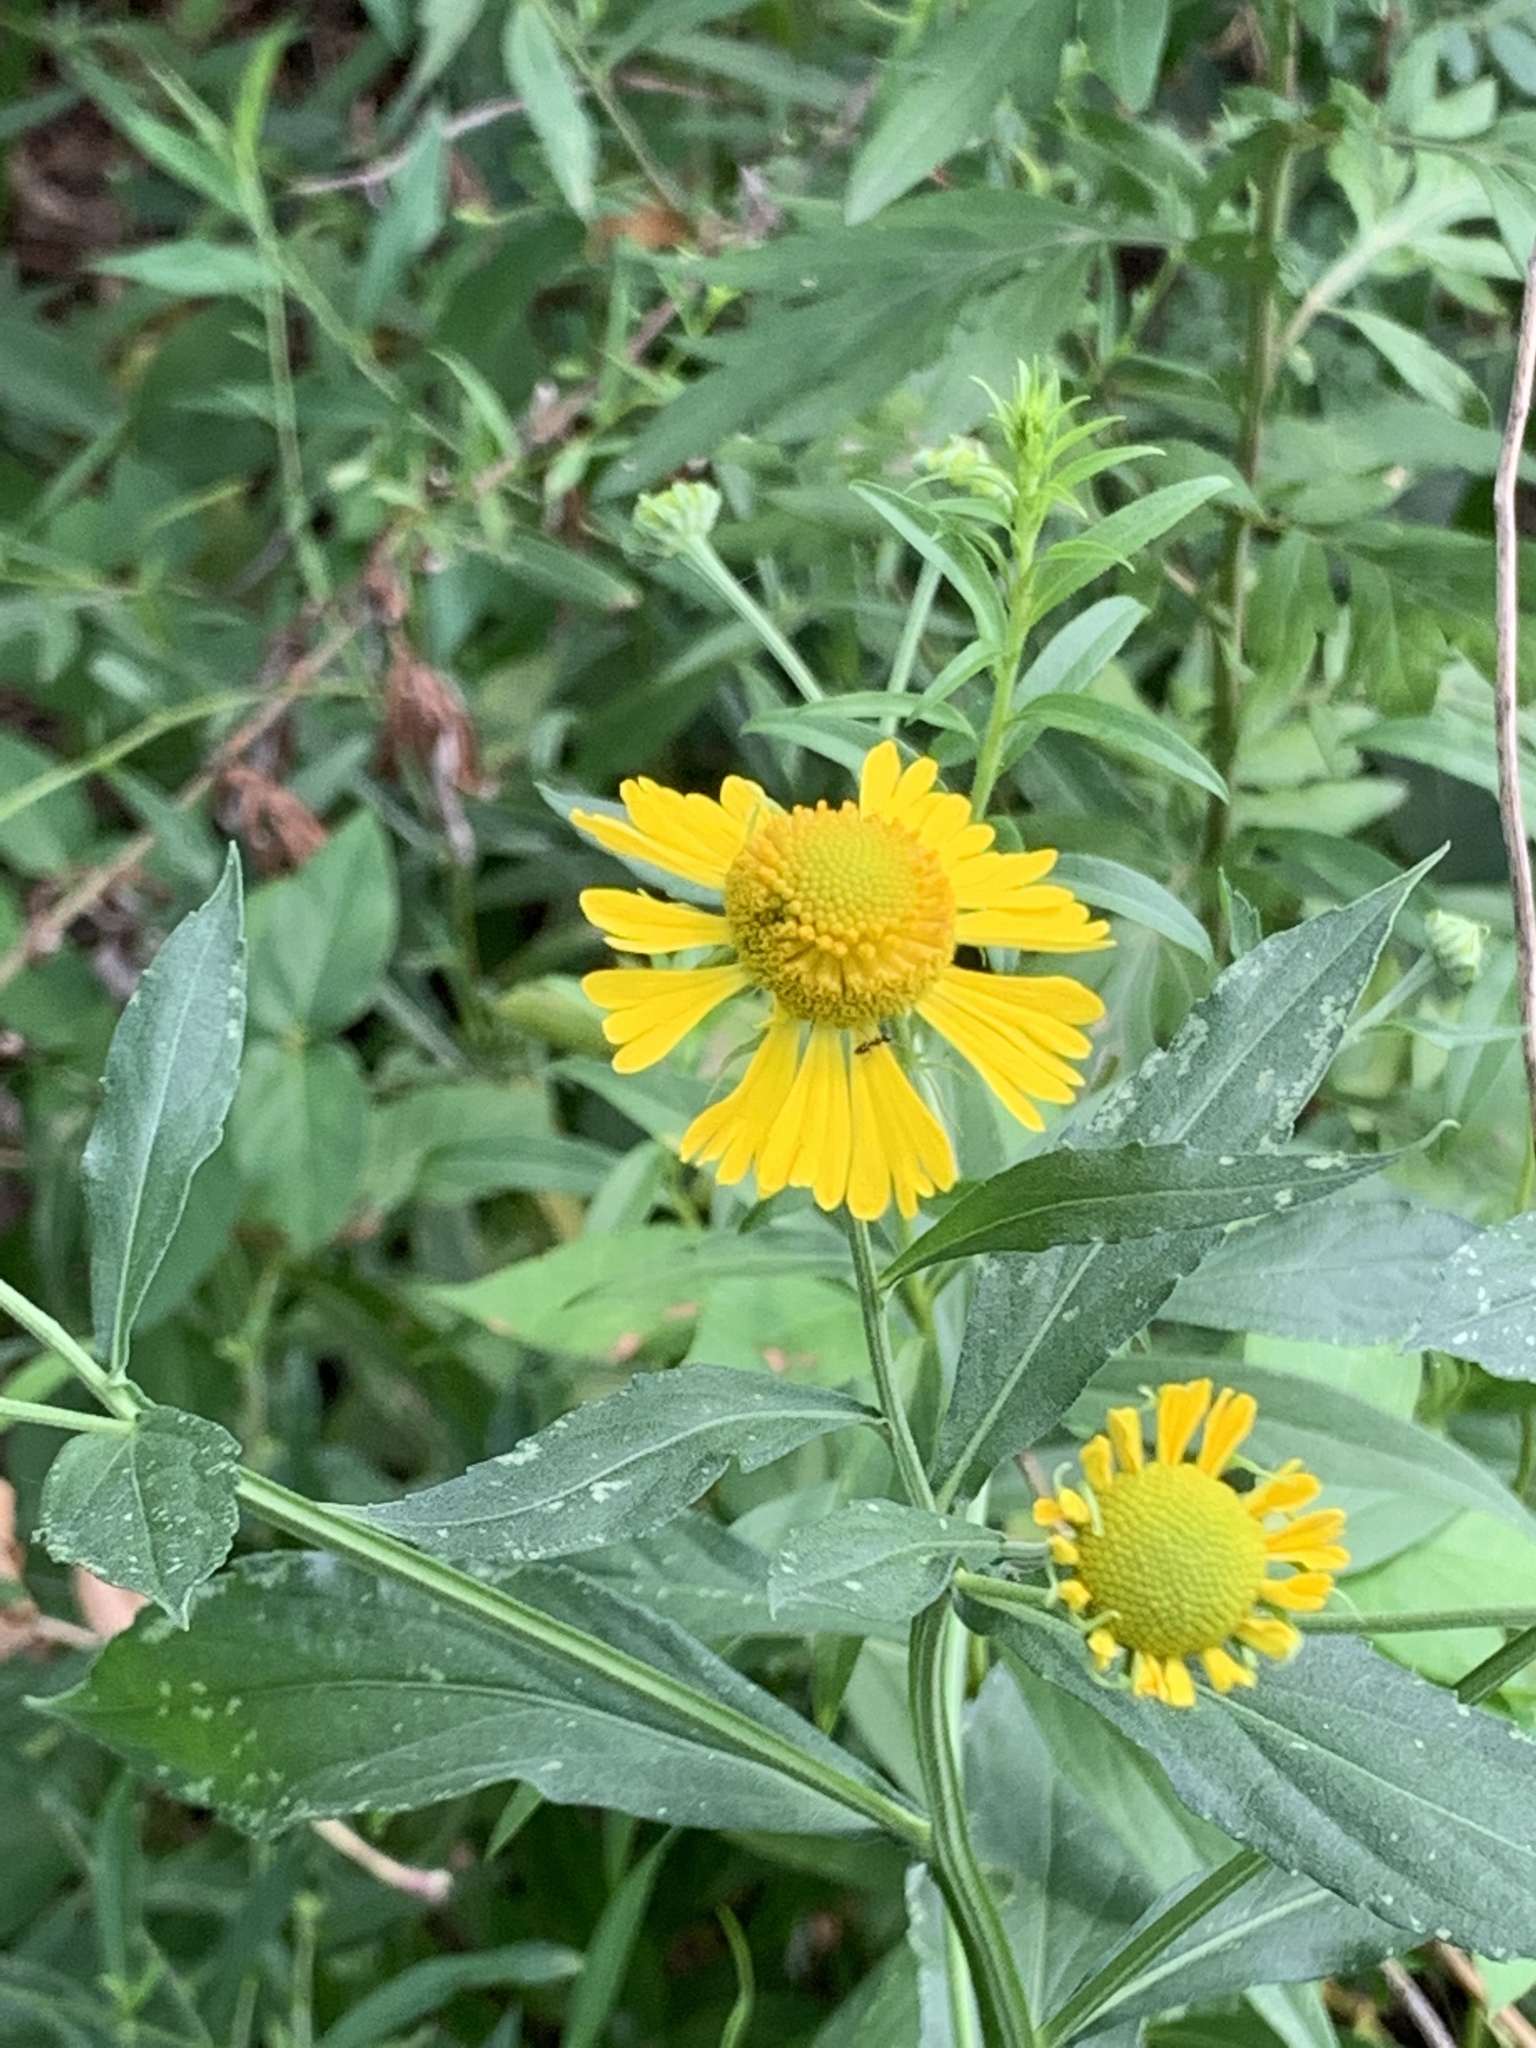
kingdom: Plantae
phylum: Tracheophyta
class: Magnoliopsida
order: Asterales
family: Asteraceae
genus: Helenium
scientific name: Helenium autumnale
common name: Sneezeweed
